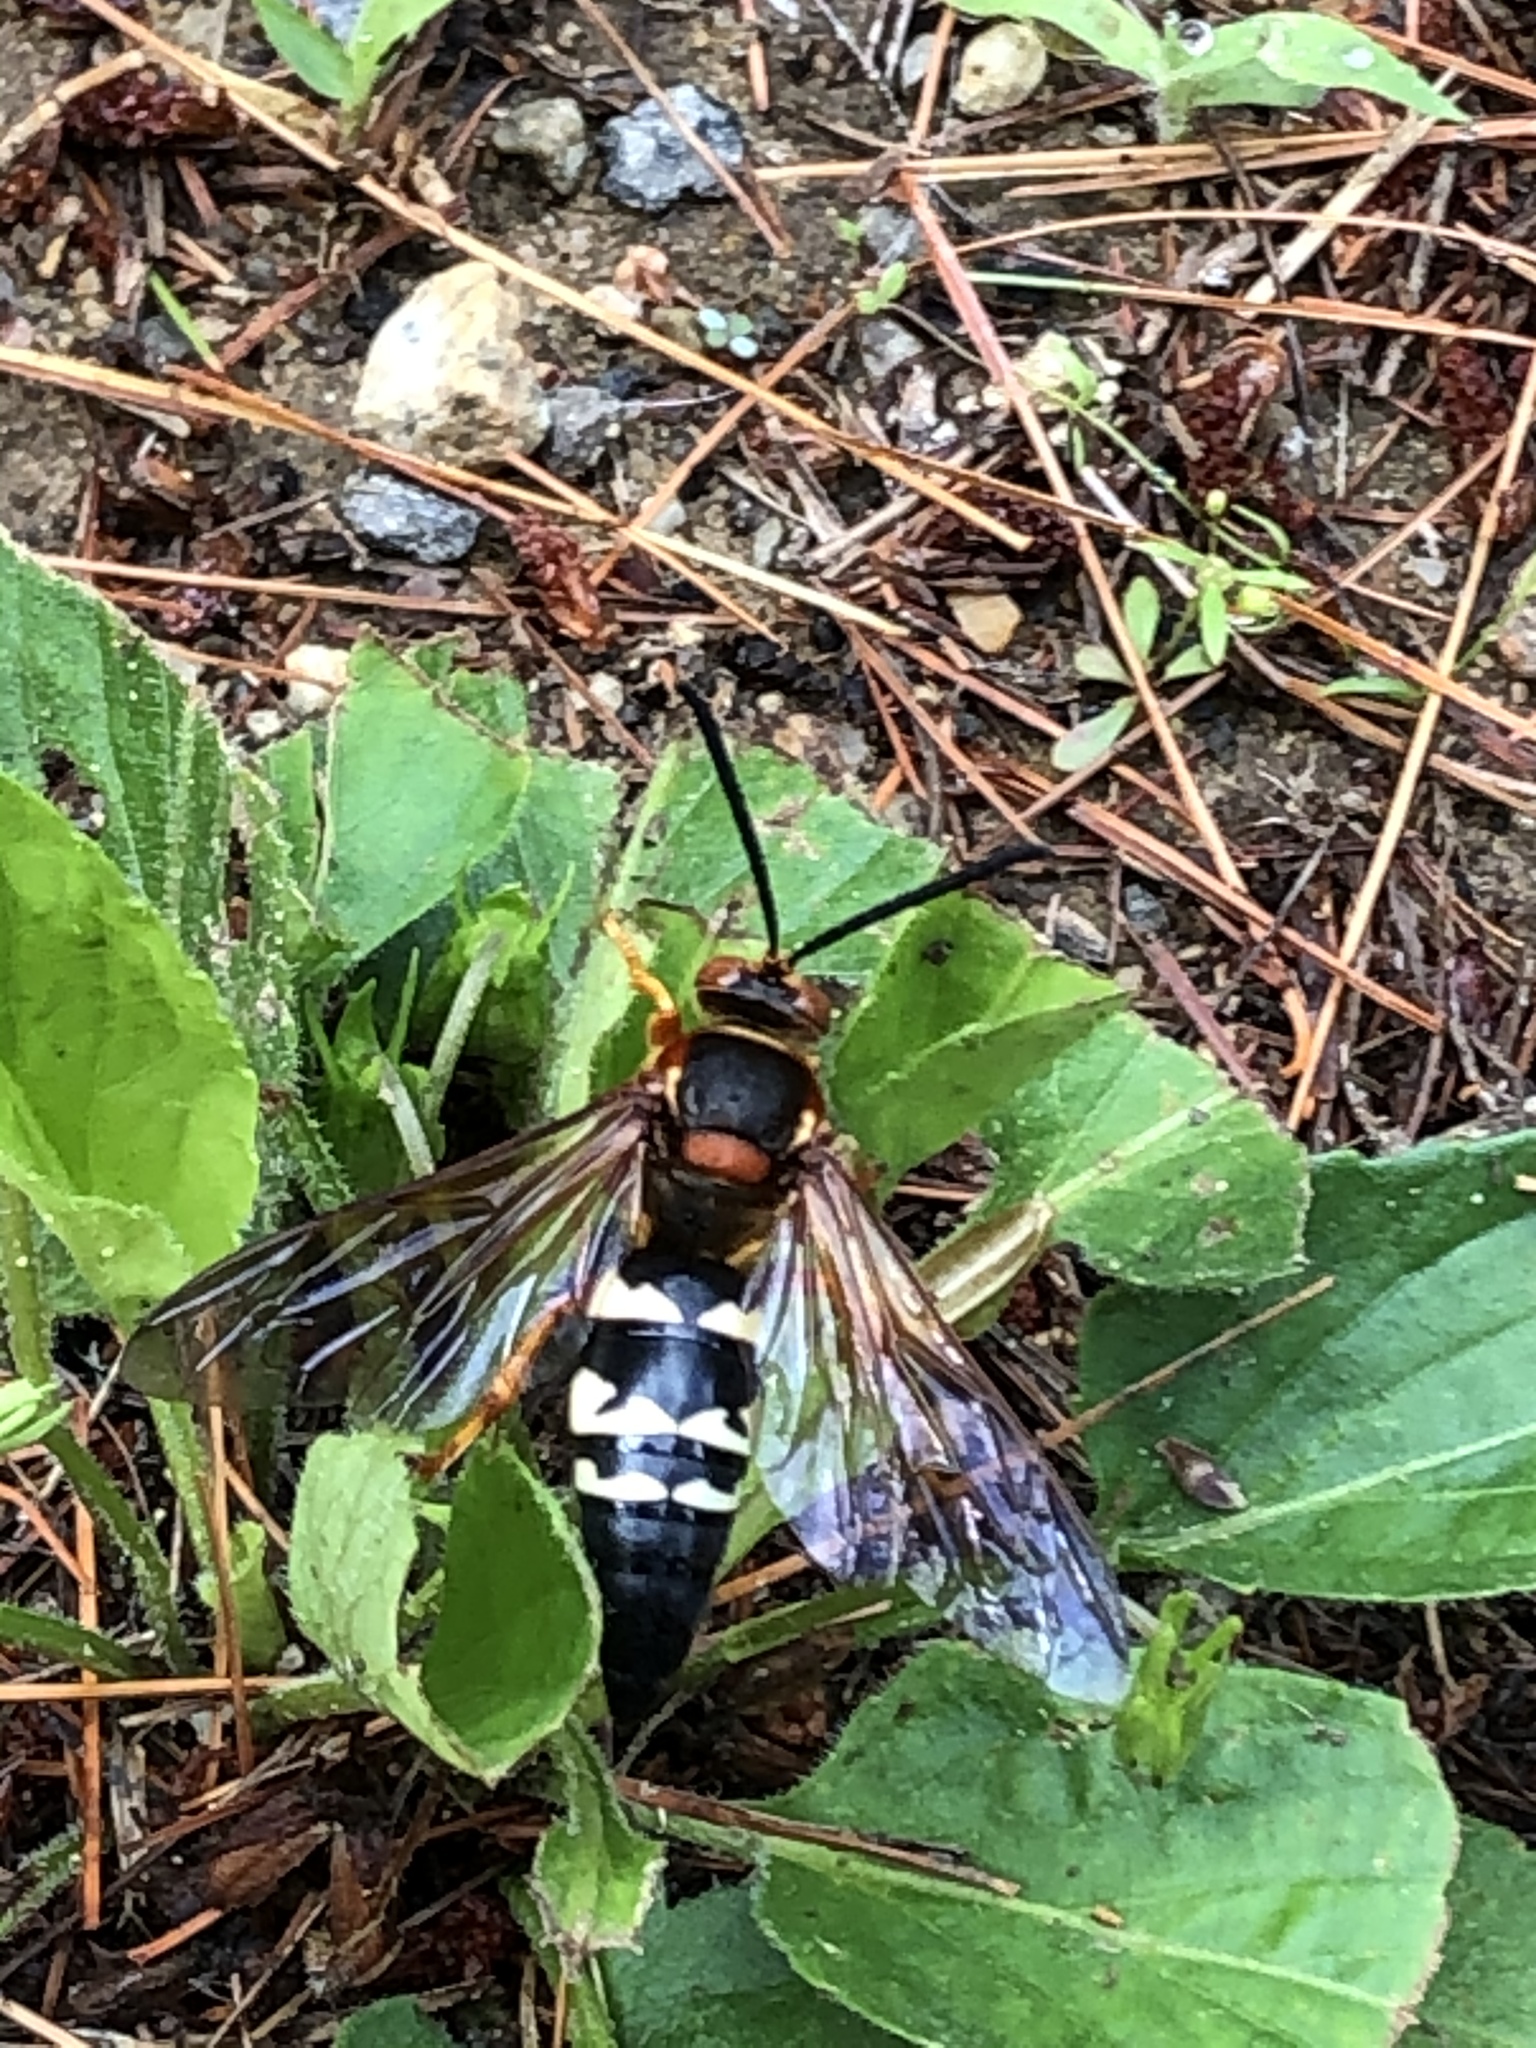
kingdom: Animalia
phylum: Arthropoda
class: Insecta
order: Hymenoptera
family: Crabronidae
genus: Sphecius
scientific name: Sphecius speciosus
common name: Cicada killer
